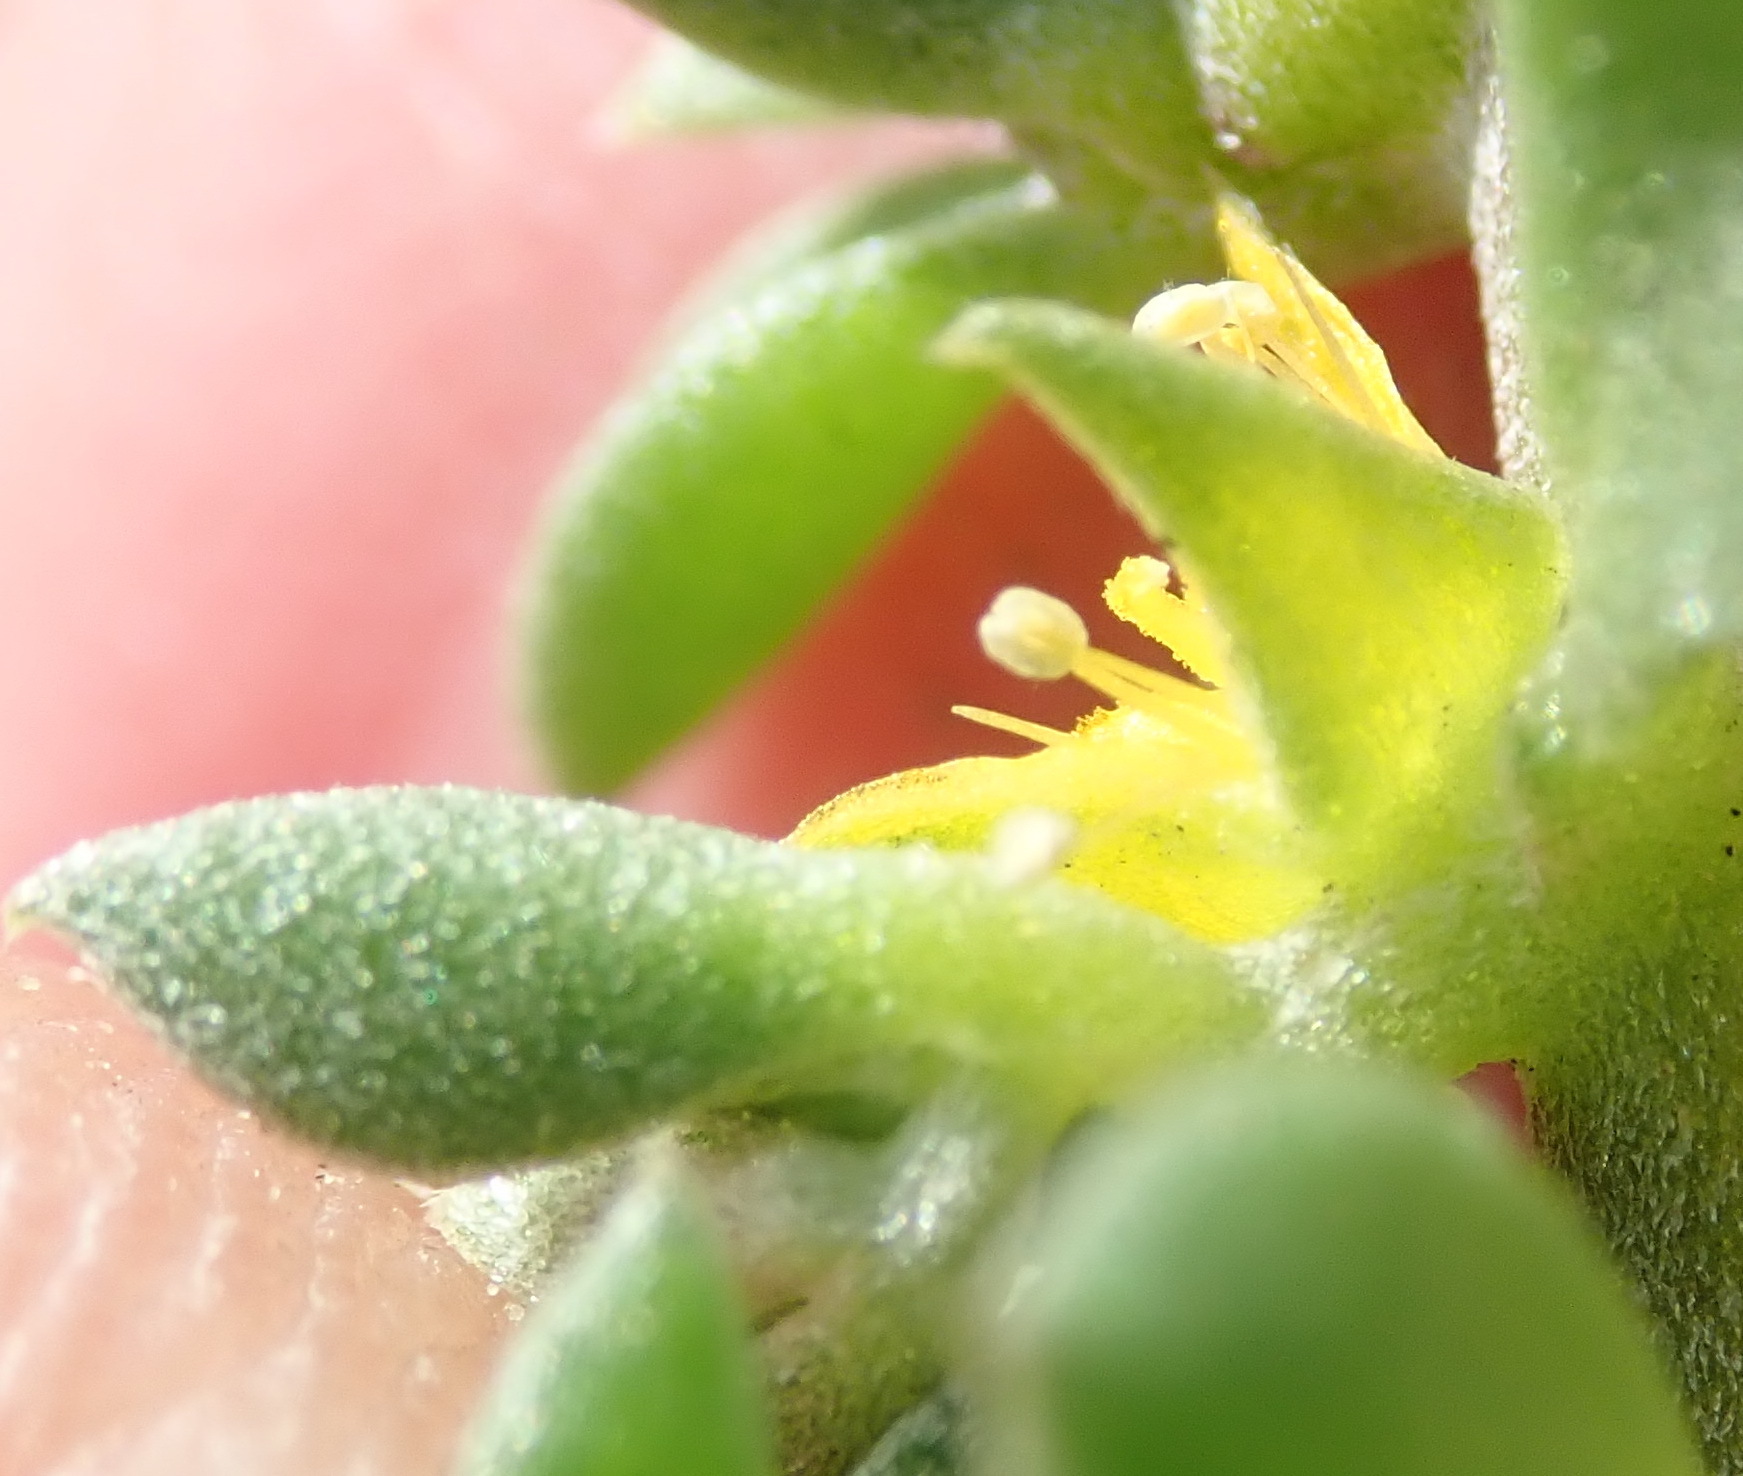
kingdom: Plantae
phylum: Tracheophyta
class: Magnoliopsida
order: Caryophyllales
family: Aizoaceae
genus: Aizoon
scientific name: Aizoon rigidum
